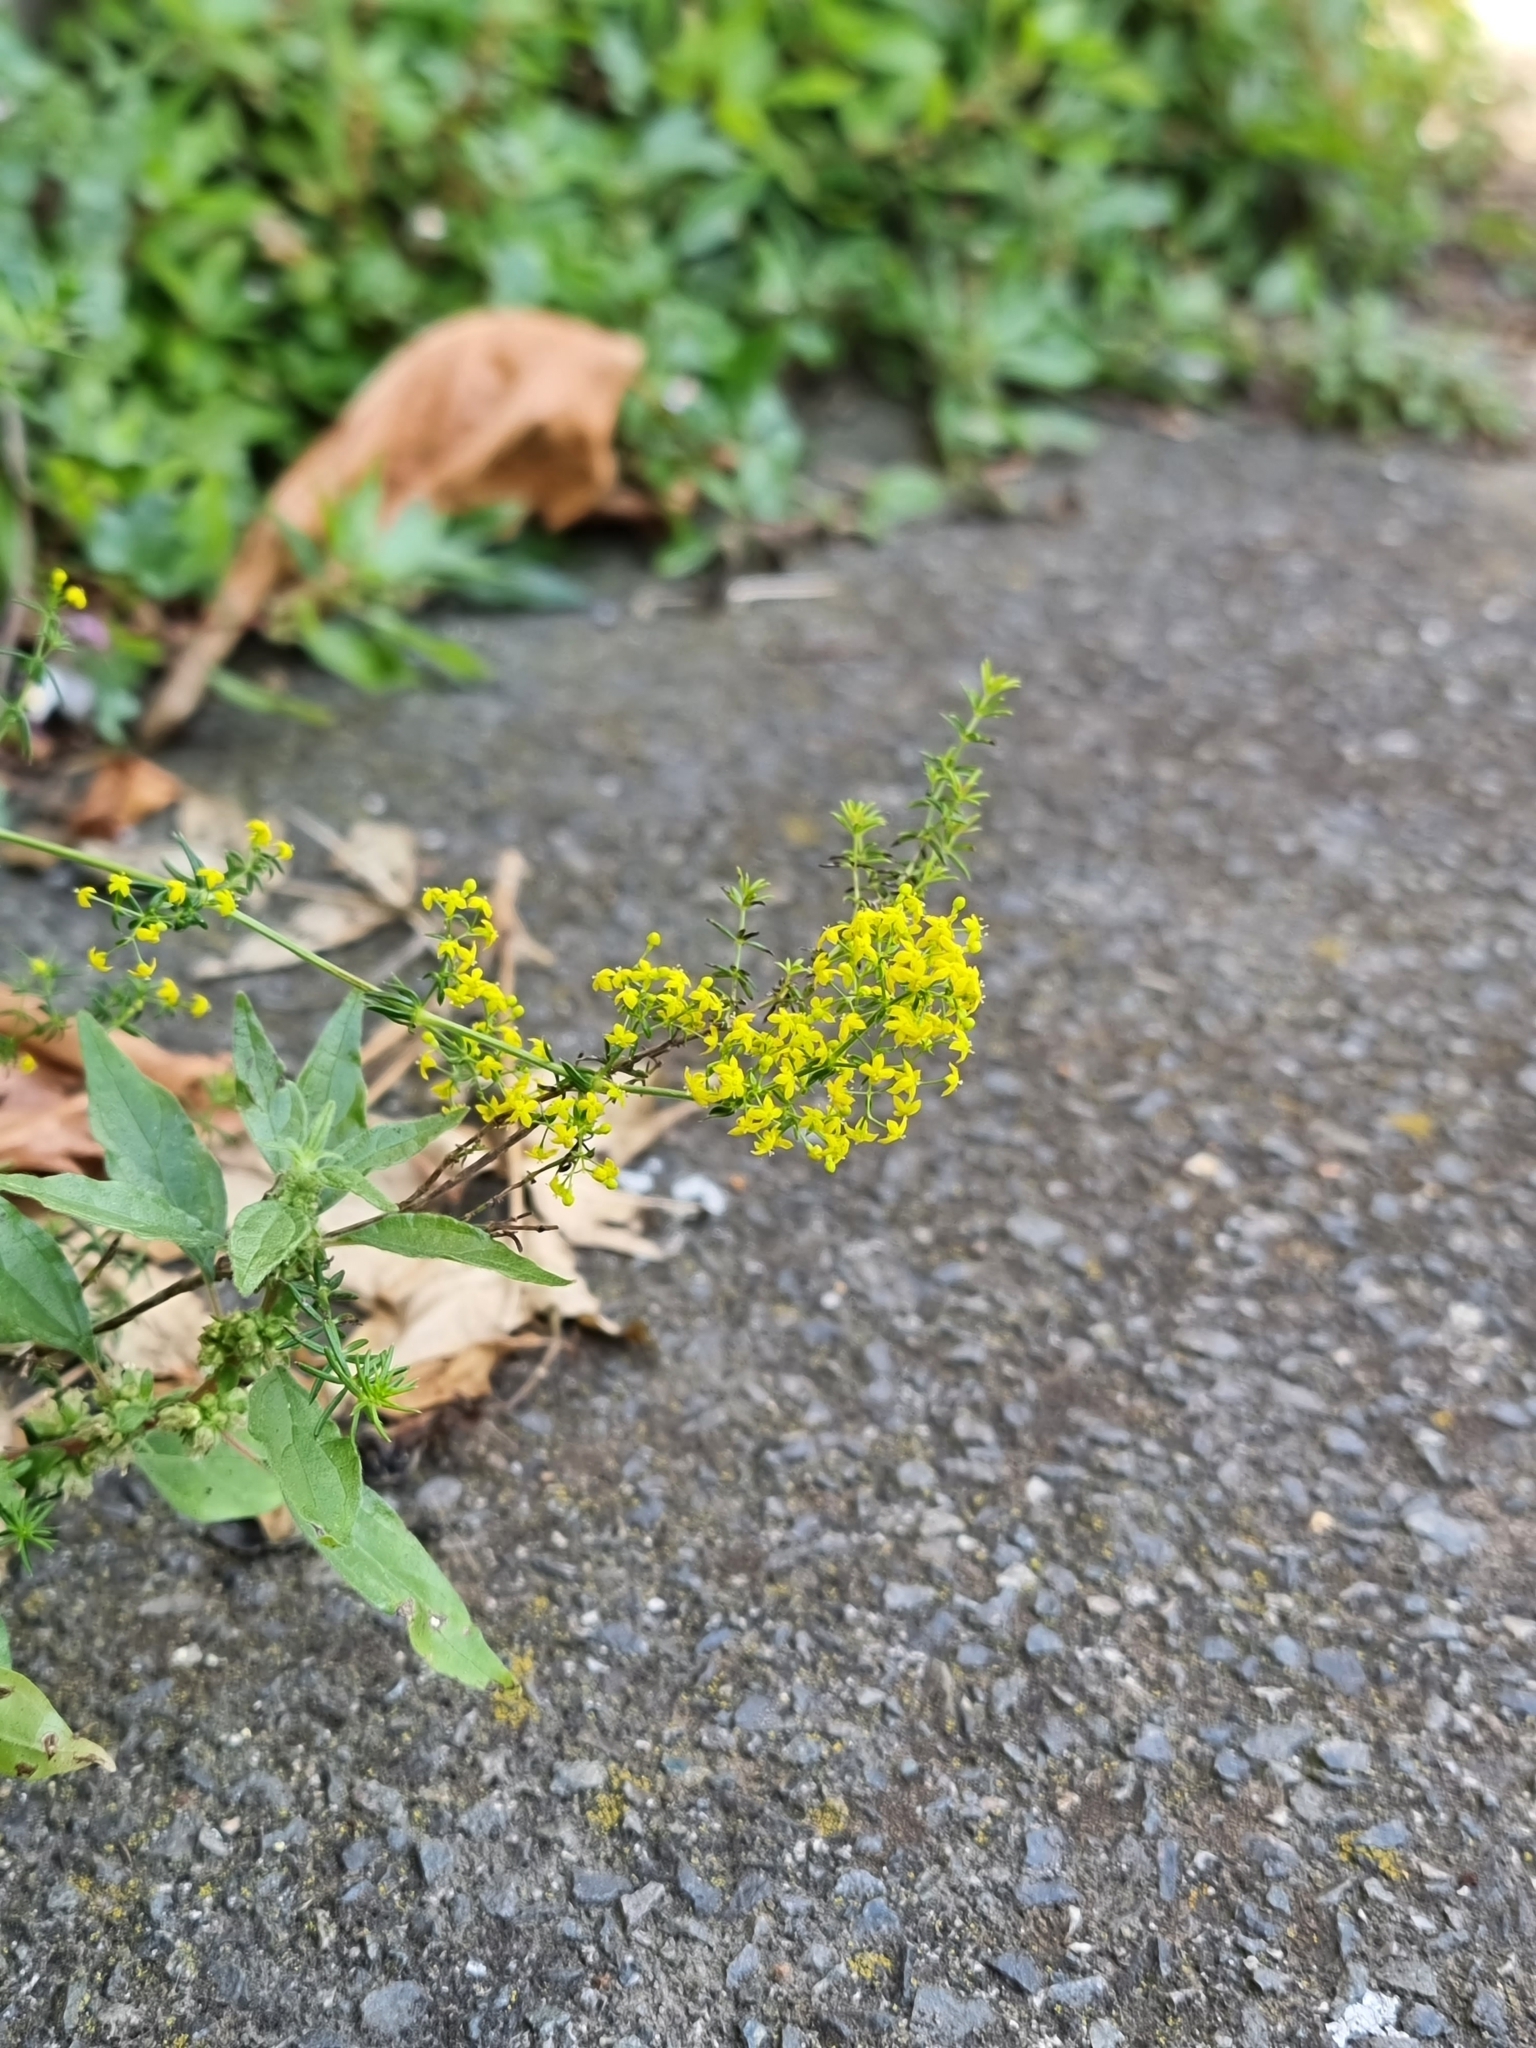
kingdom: Plantae
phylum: Tracheophyta
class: Magnoliopsida
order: Gentianales
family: Rubiaceae
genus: Galium
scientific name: Galium verum
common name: Lady's bedstraw
